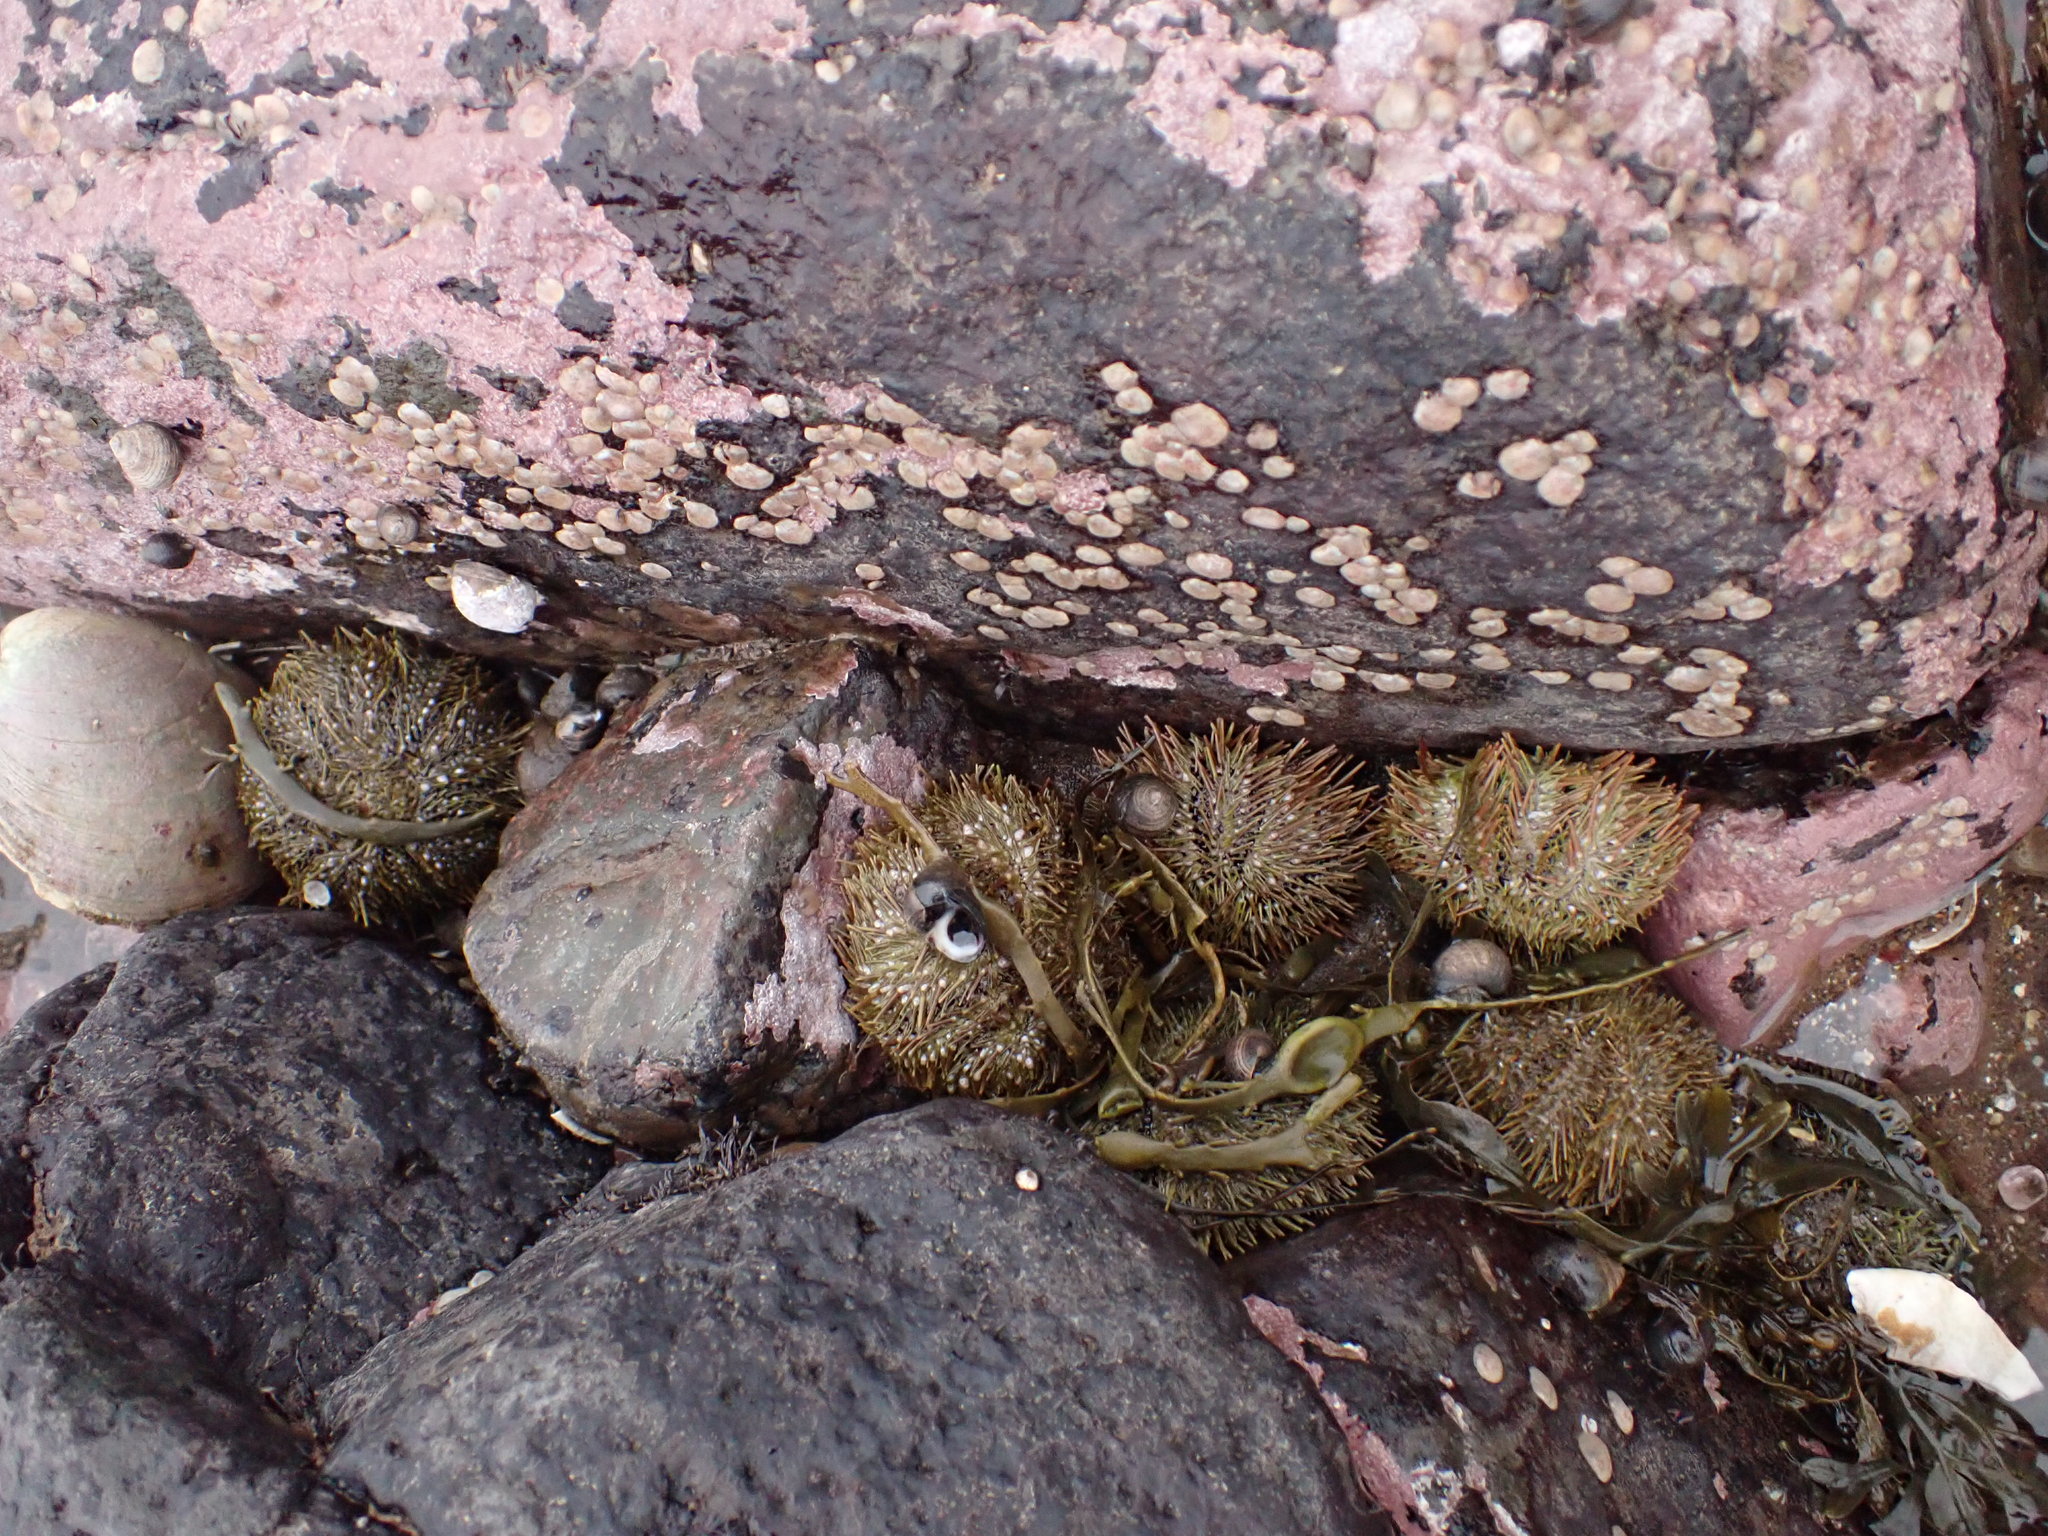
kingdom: Animalia
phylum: Echinodermata
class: Echinoidea
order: Camarodonta
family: Strongylocentrotidae
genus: Strongylocentrotus
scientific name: Strongylocentrotus droebachiensis
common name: Northern sea urchin
